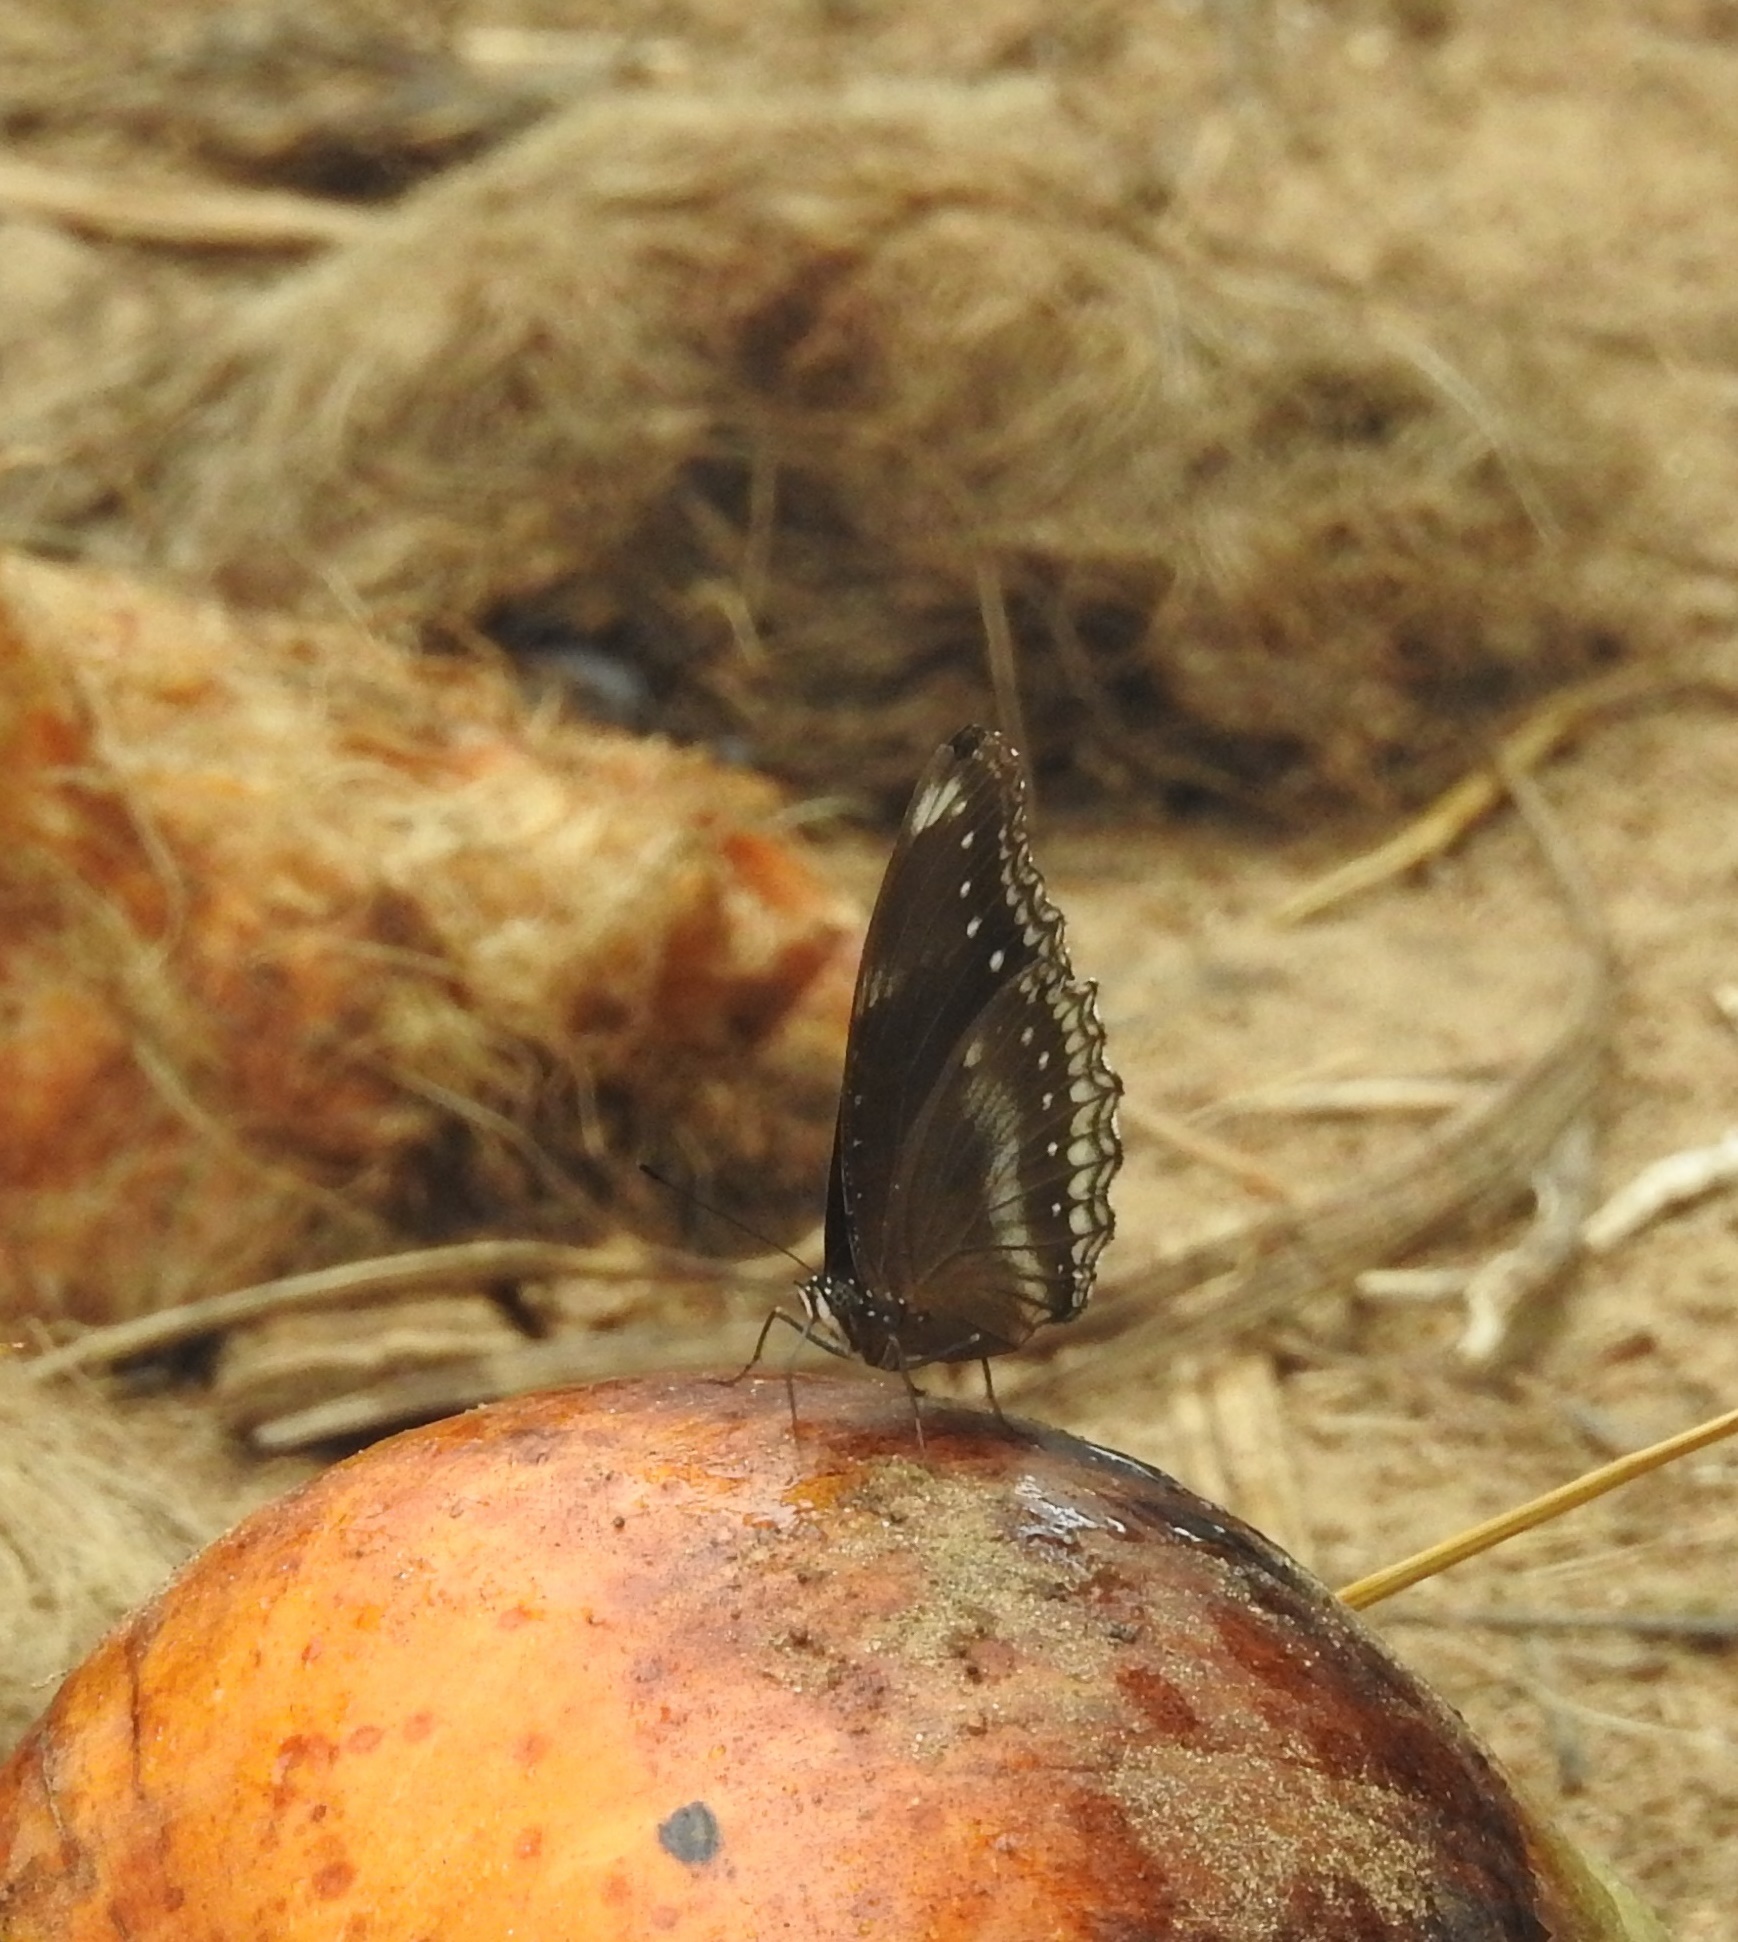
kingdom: Animalia
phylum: Arthropoda
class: Insecta
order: Lepidoptera
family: Nymphalidae
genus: Hypolimnas
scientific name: Hypolimnas bolina
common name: Great eggfly
